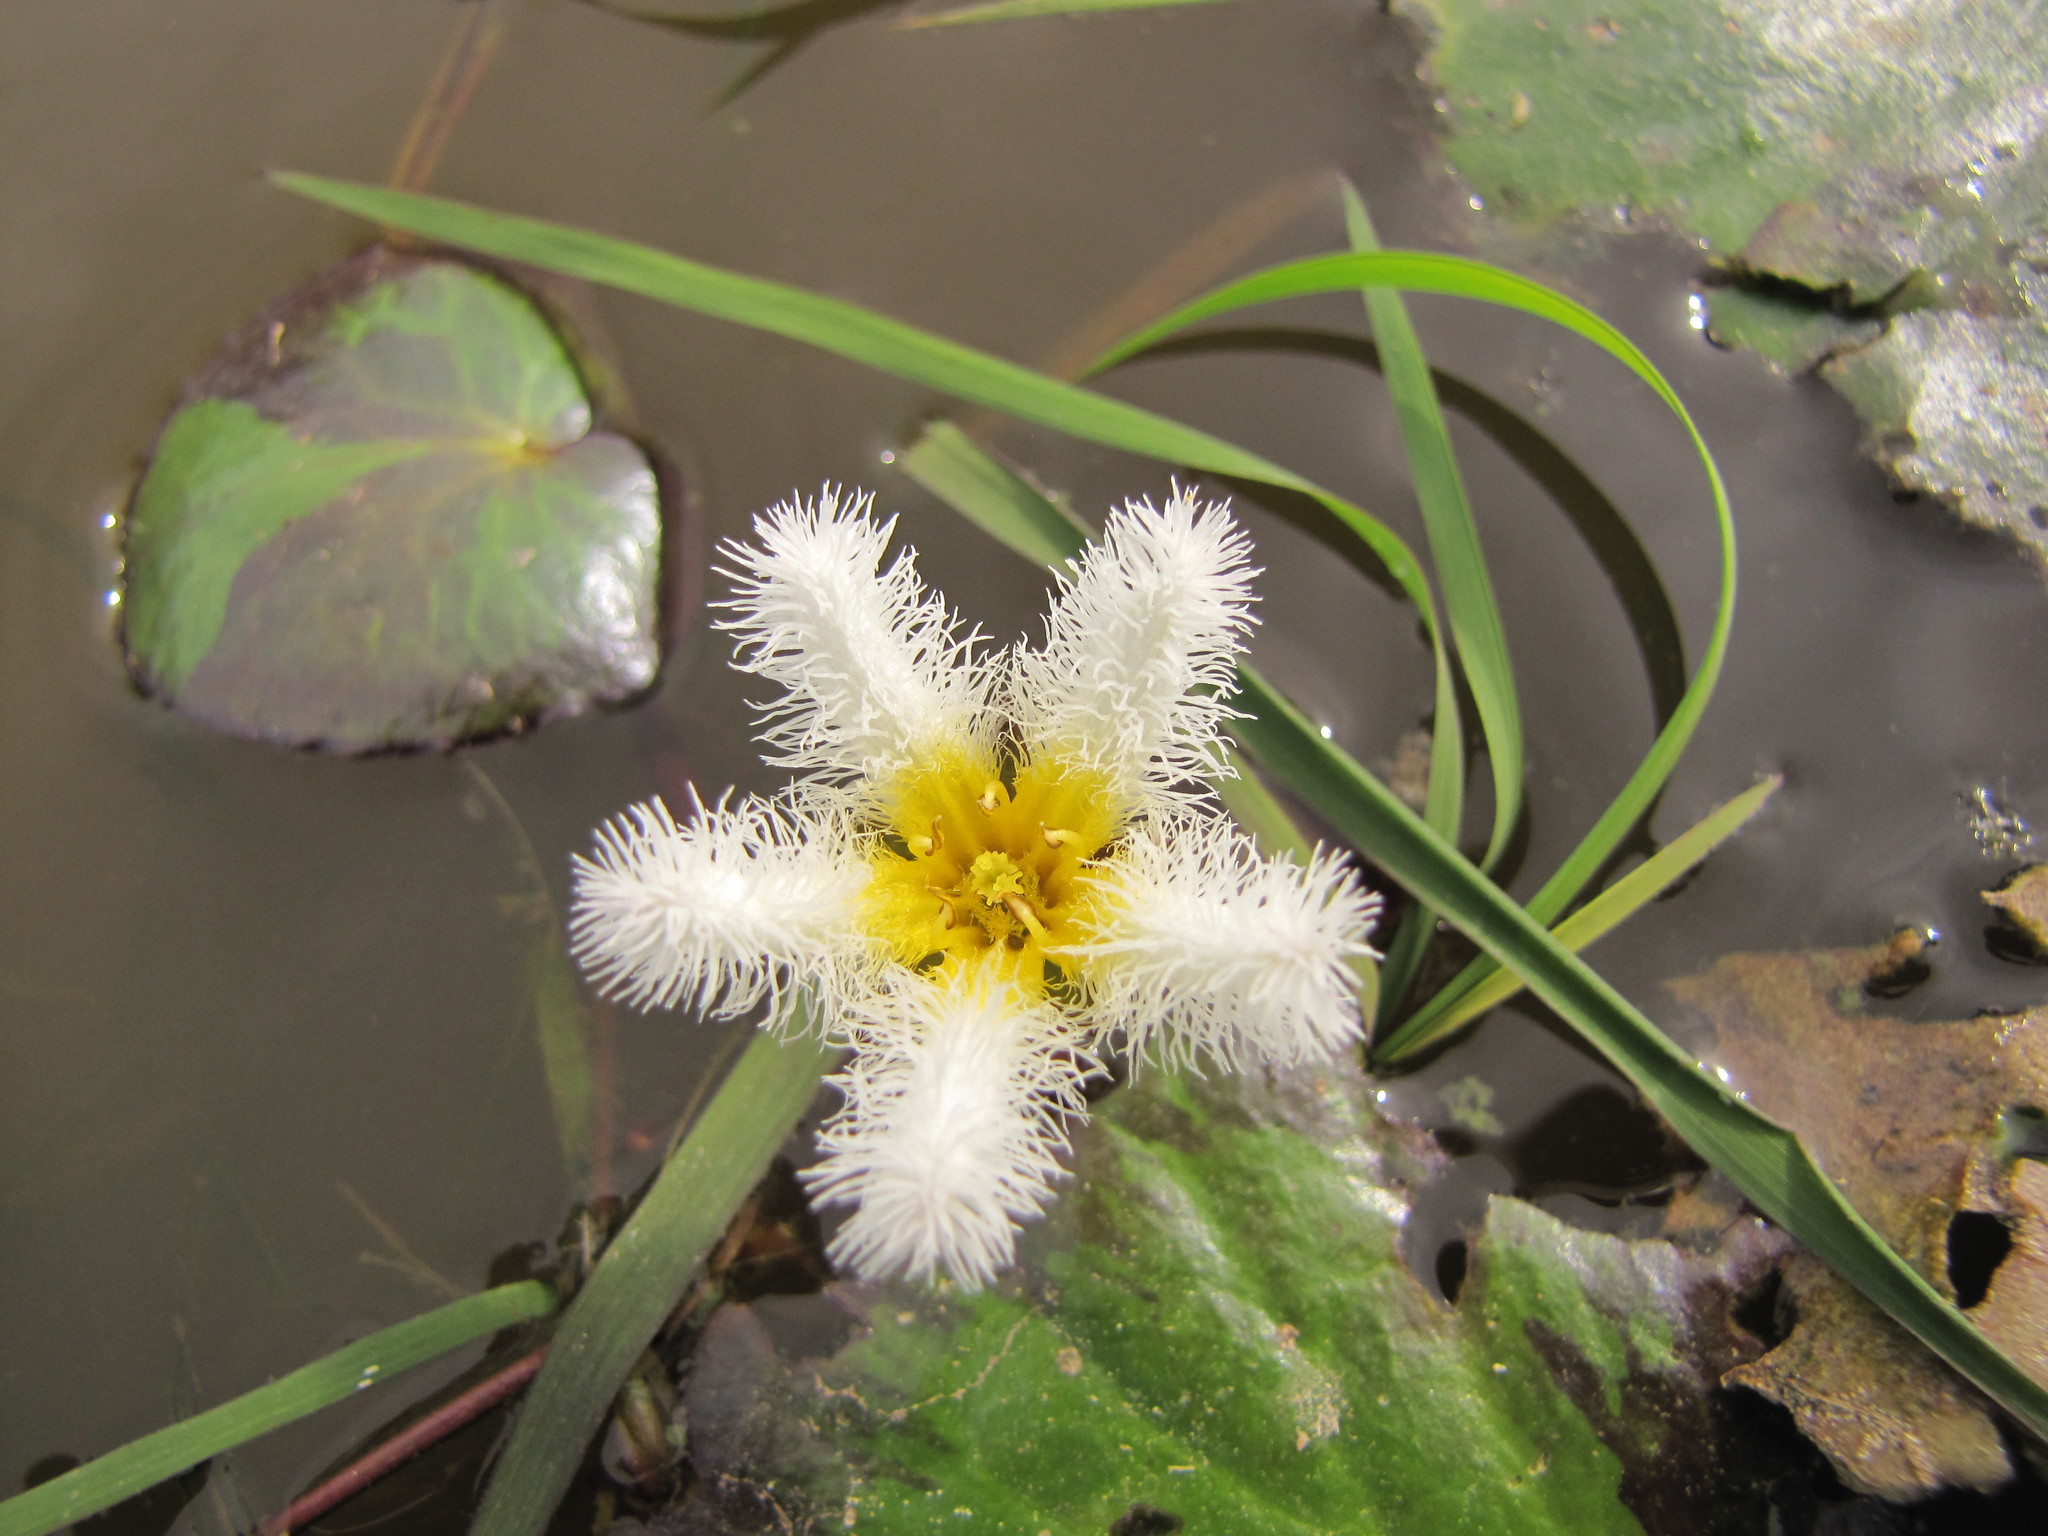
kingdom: Plantae
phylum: Tracheophyta
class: Magnoliopsida
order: Asterales
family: Menyanthaceae
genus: Nymphoides
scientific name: Nymphoides humboldtiana
